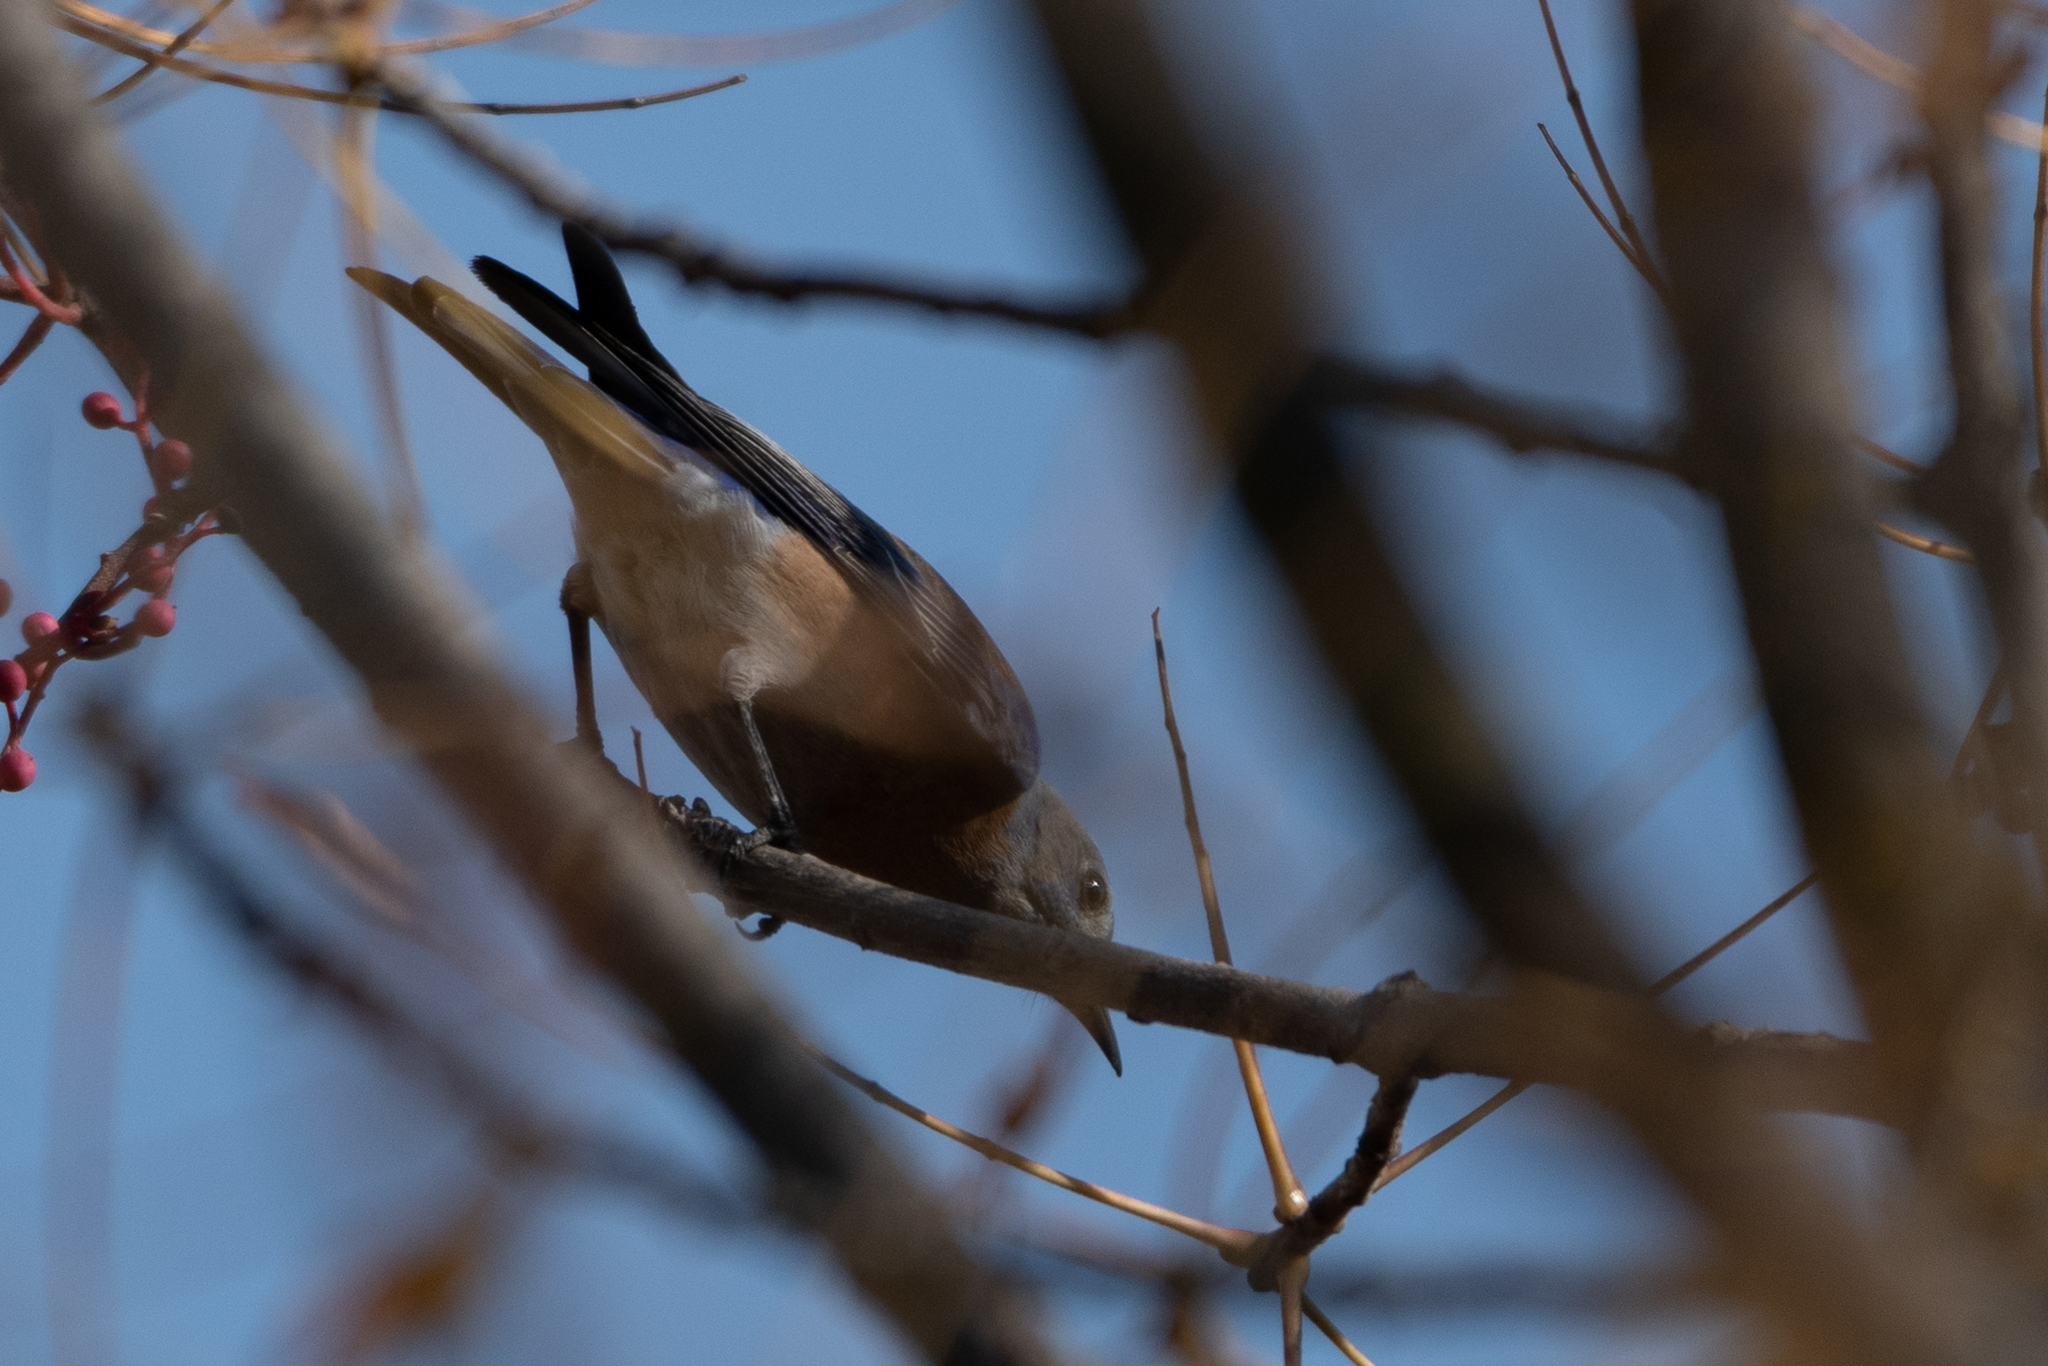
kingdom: Animalia
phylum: Chordata
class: Aves
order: Passeriformes
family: Turdidae
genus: Sialia
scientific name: Sialia mexicana
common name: Western bluebird
